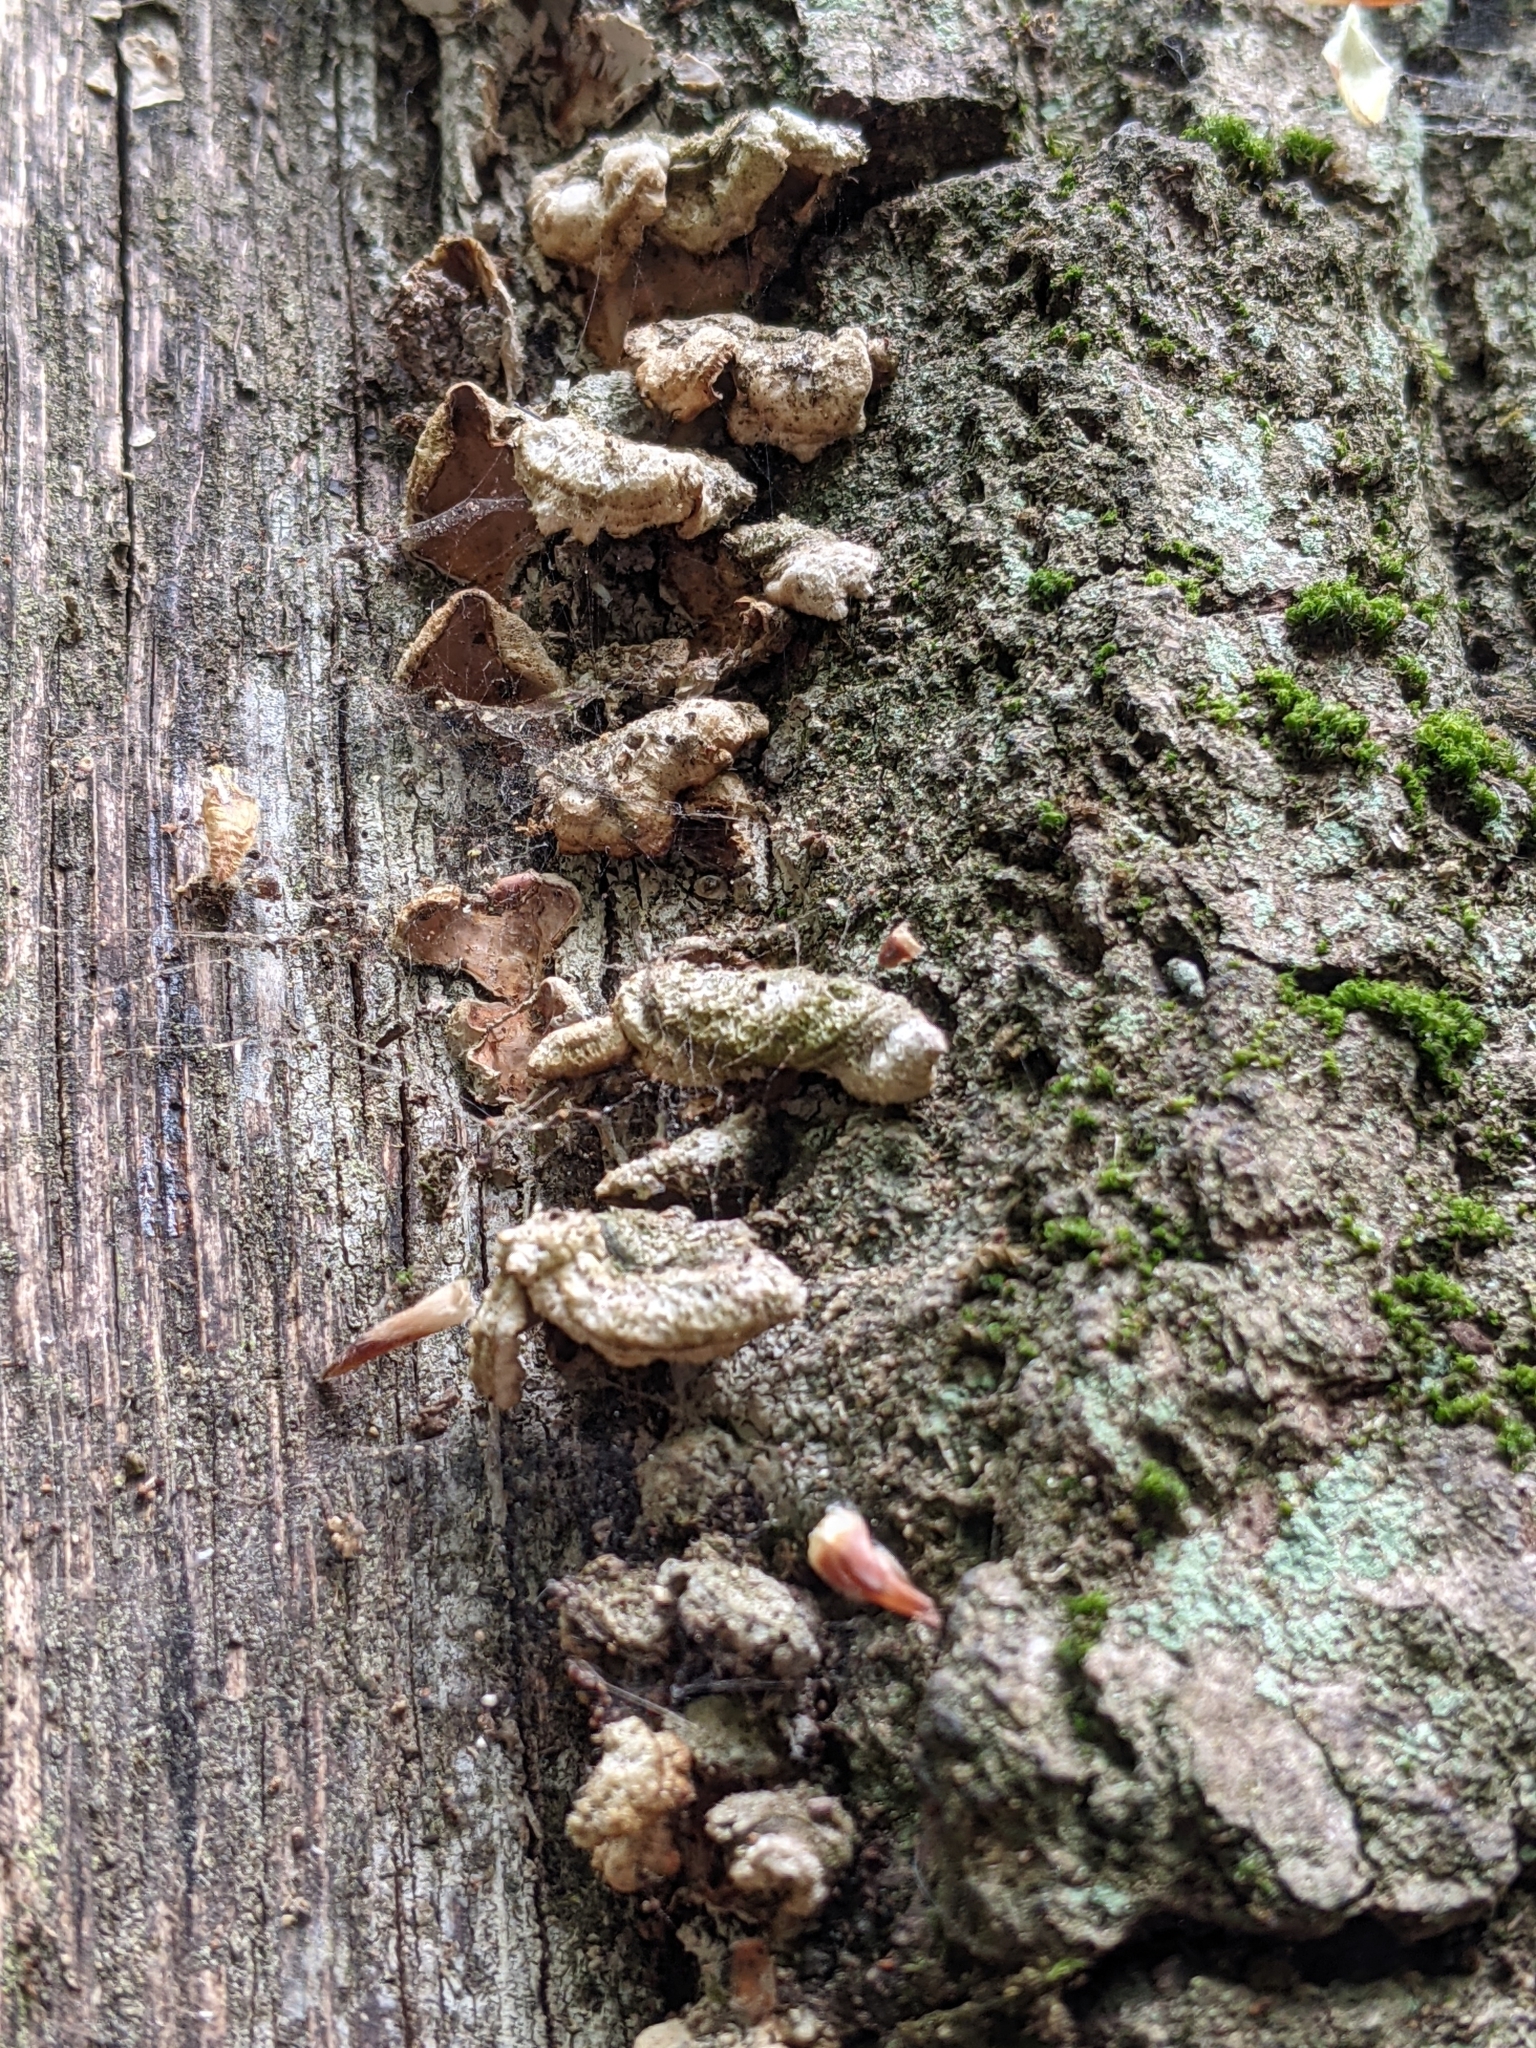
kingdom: Fungi
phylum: Basidiomycota
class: Agaricomycetes
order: Russulales
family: Stereaceae
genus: Stereum
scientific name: Stereum hirsutum
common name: Hairy curtain crust
